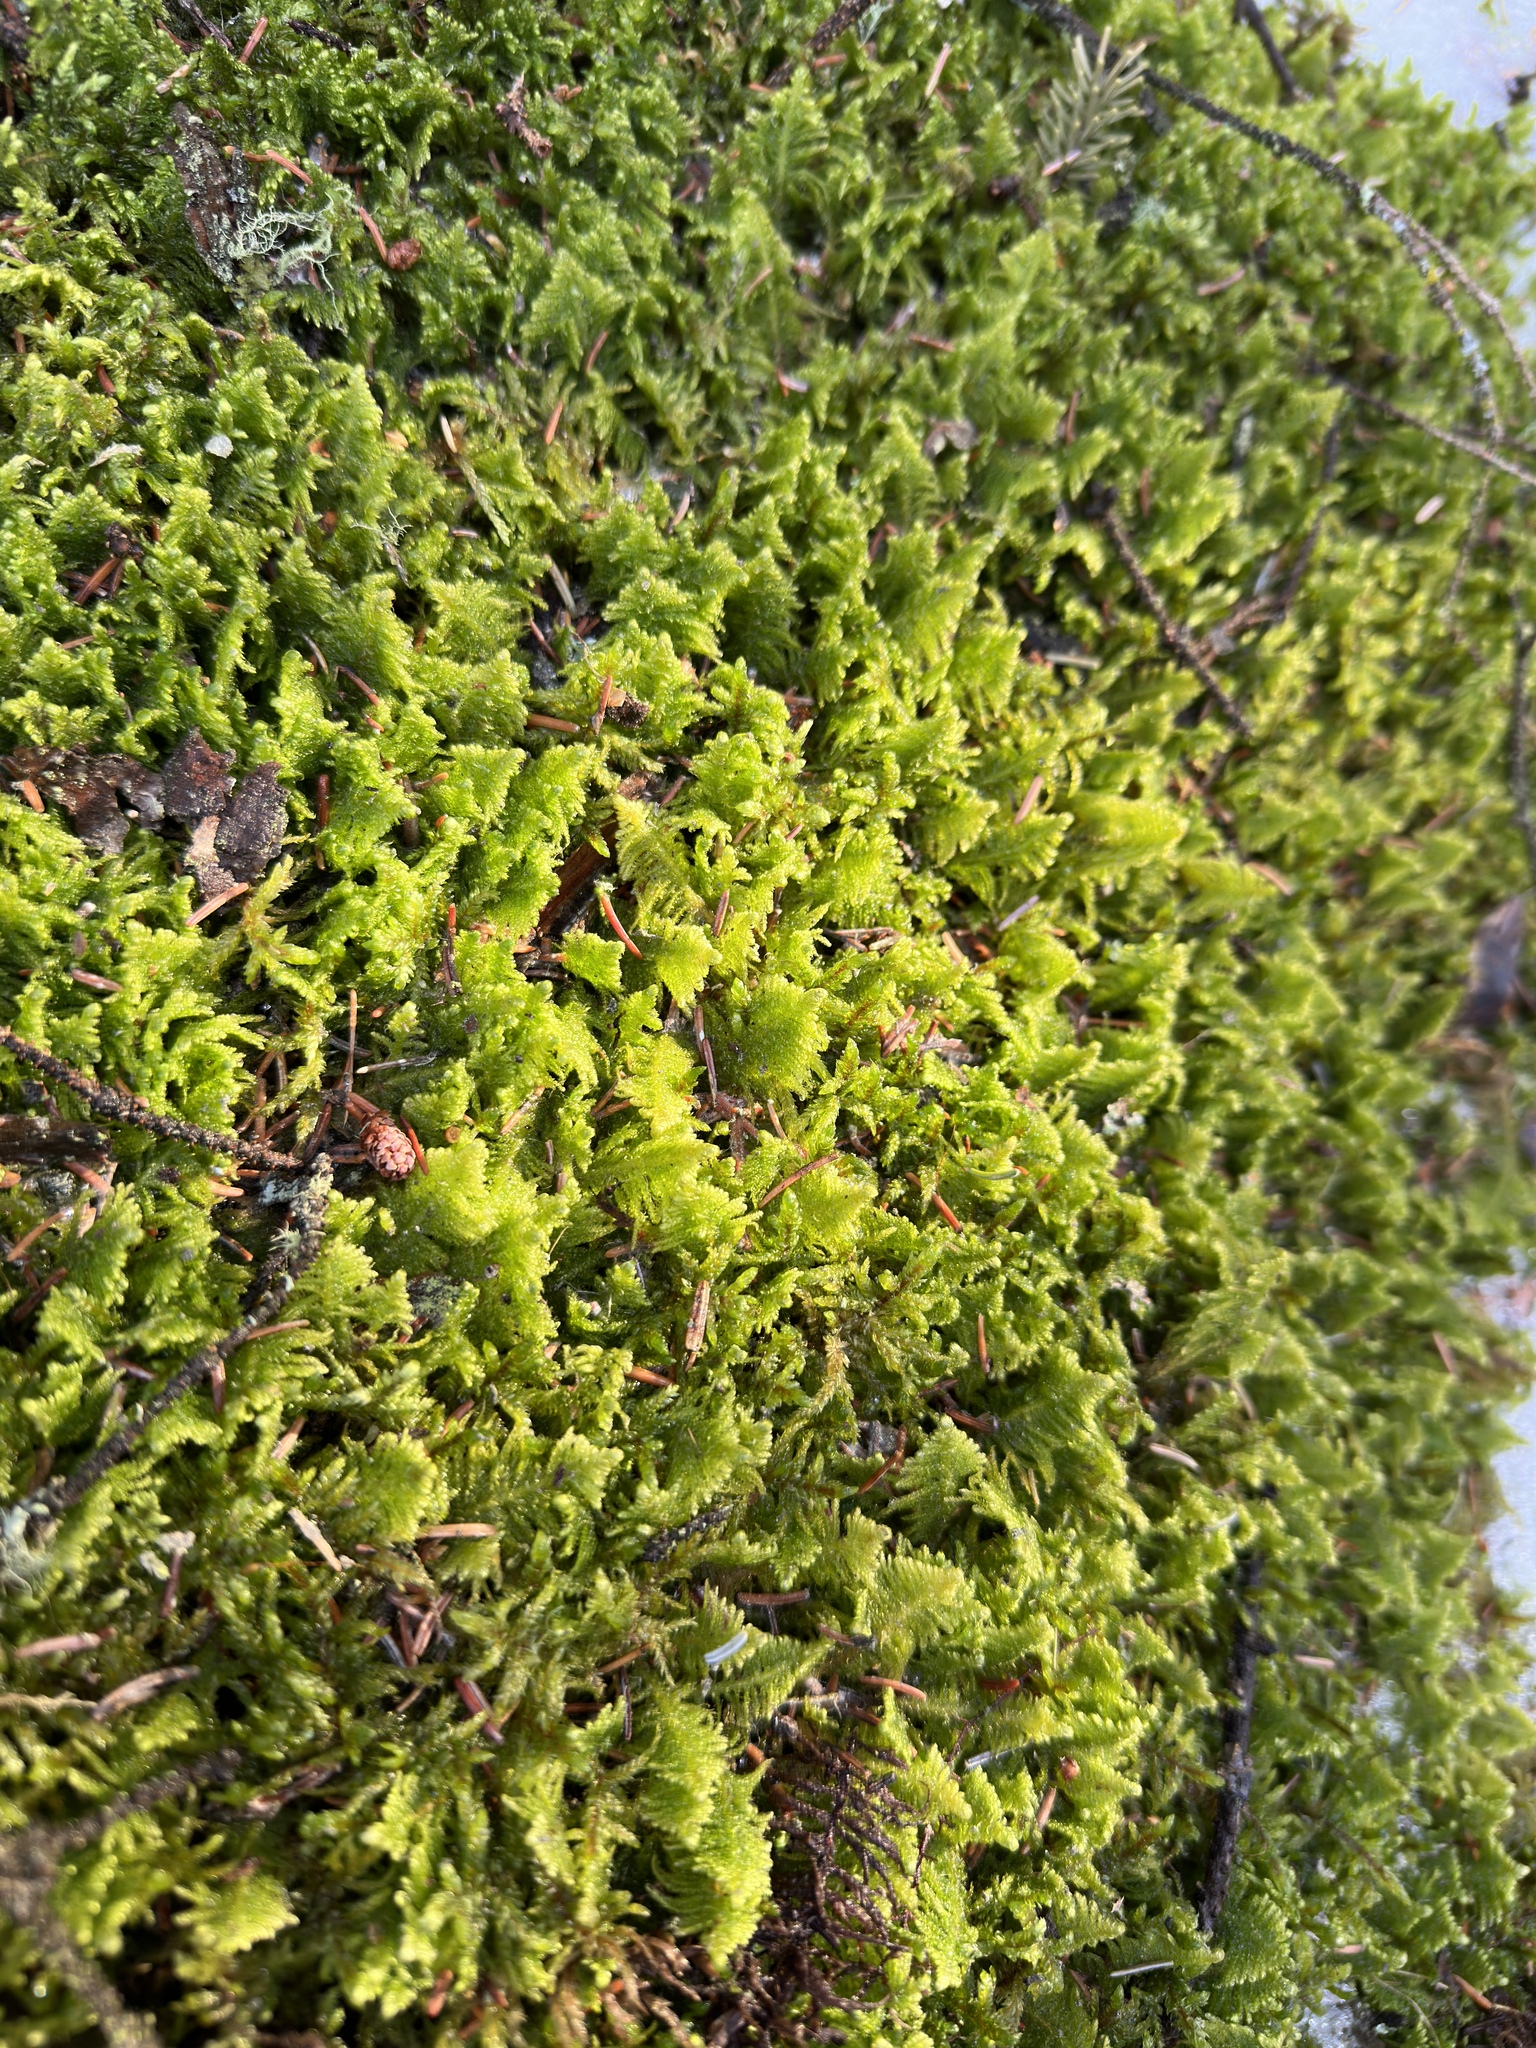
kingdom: Plantae
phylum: Bryophyta
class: Bryopsida
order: Hypnales
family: Pylaisiaceae
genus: Ptilium
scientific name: Ptilium crista-castrensis
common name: Knight's plume moss
